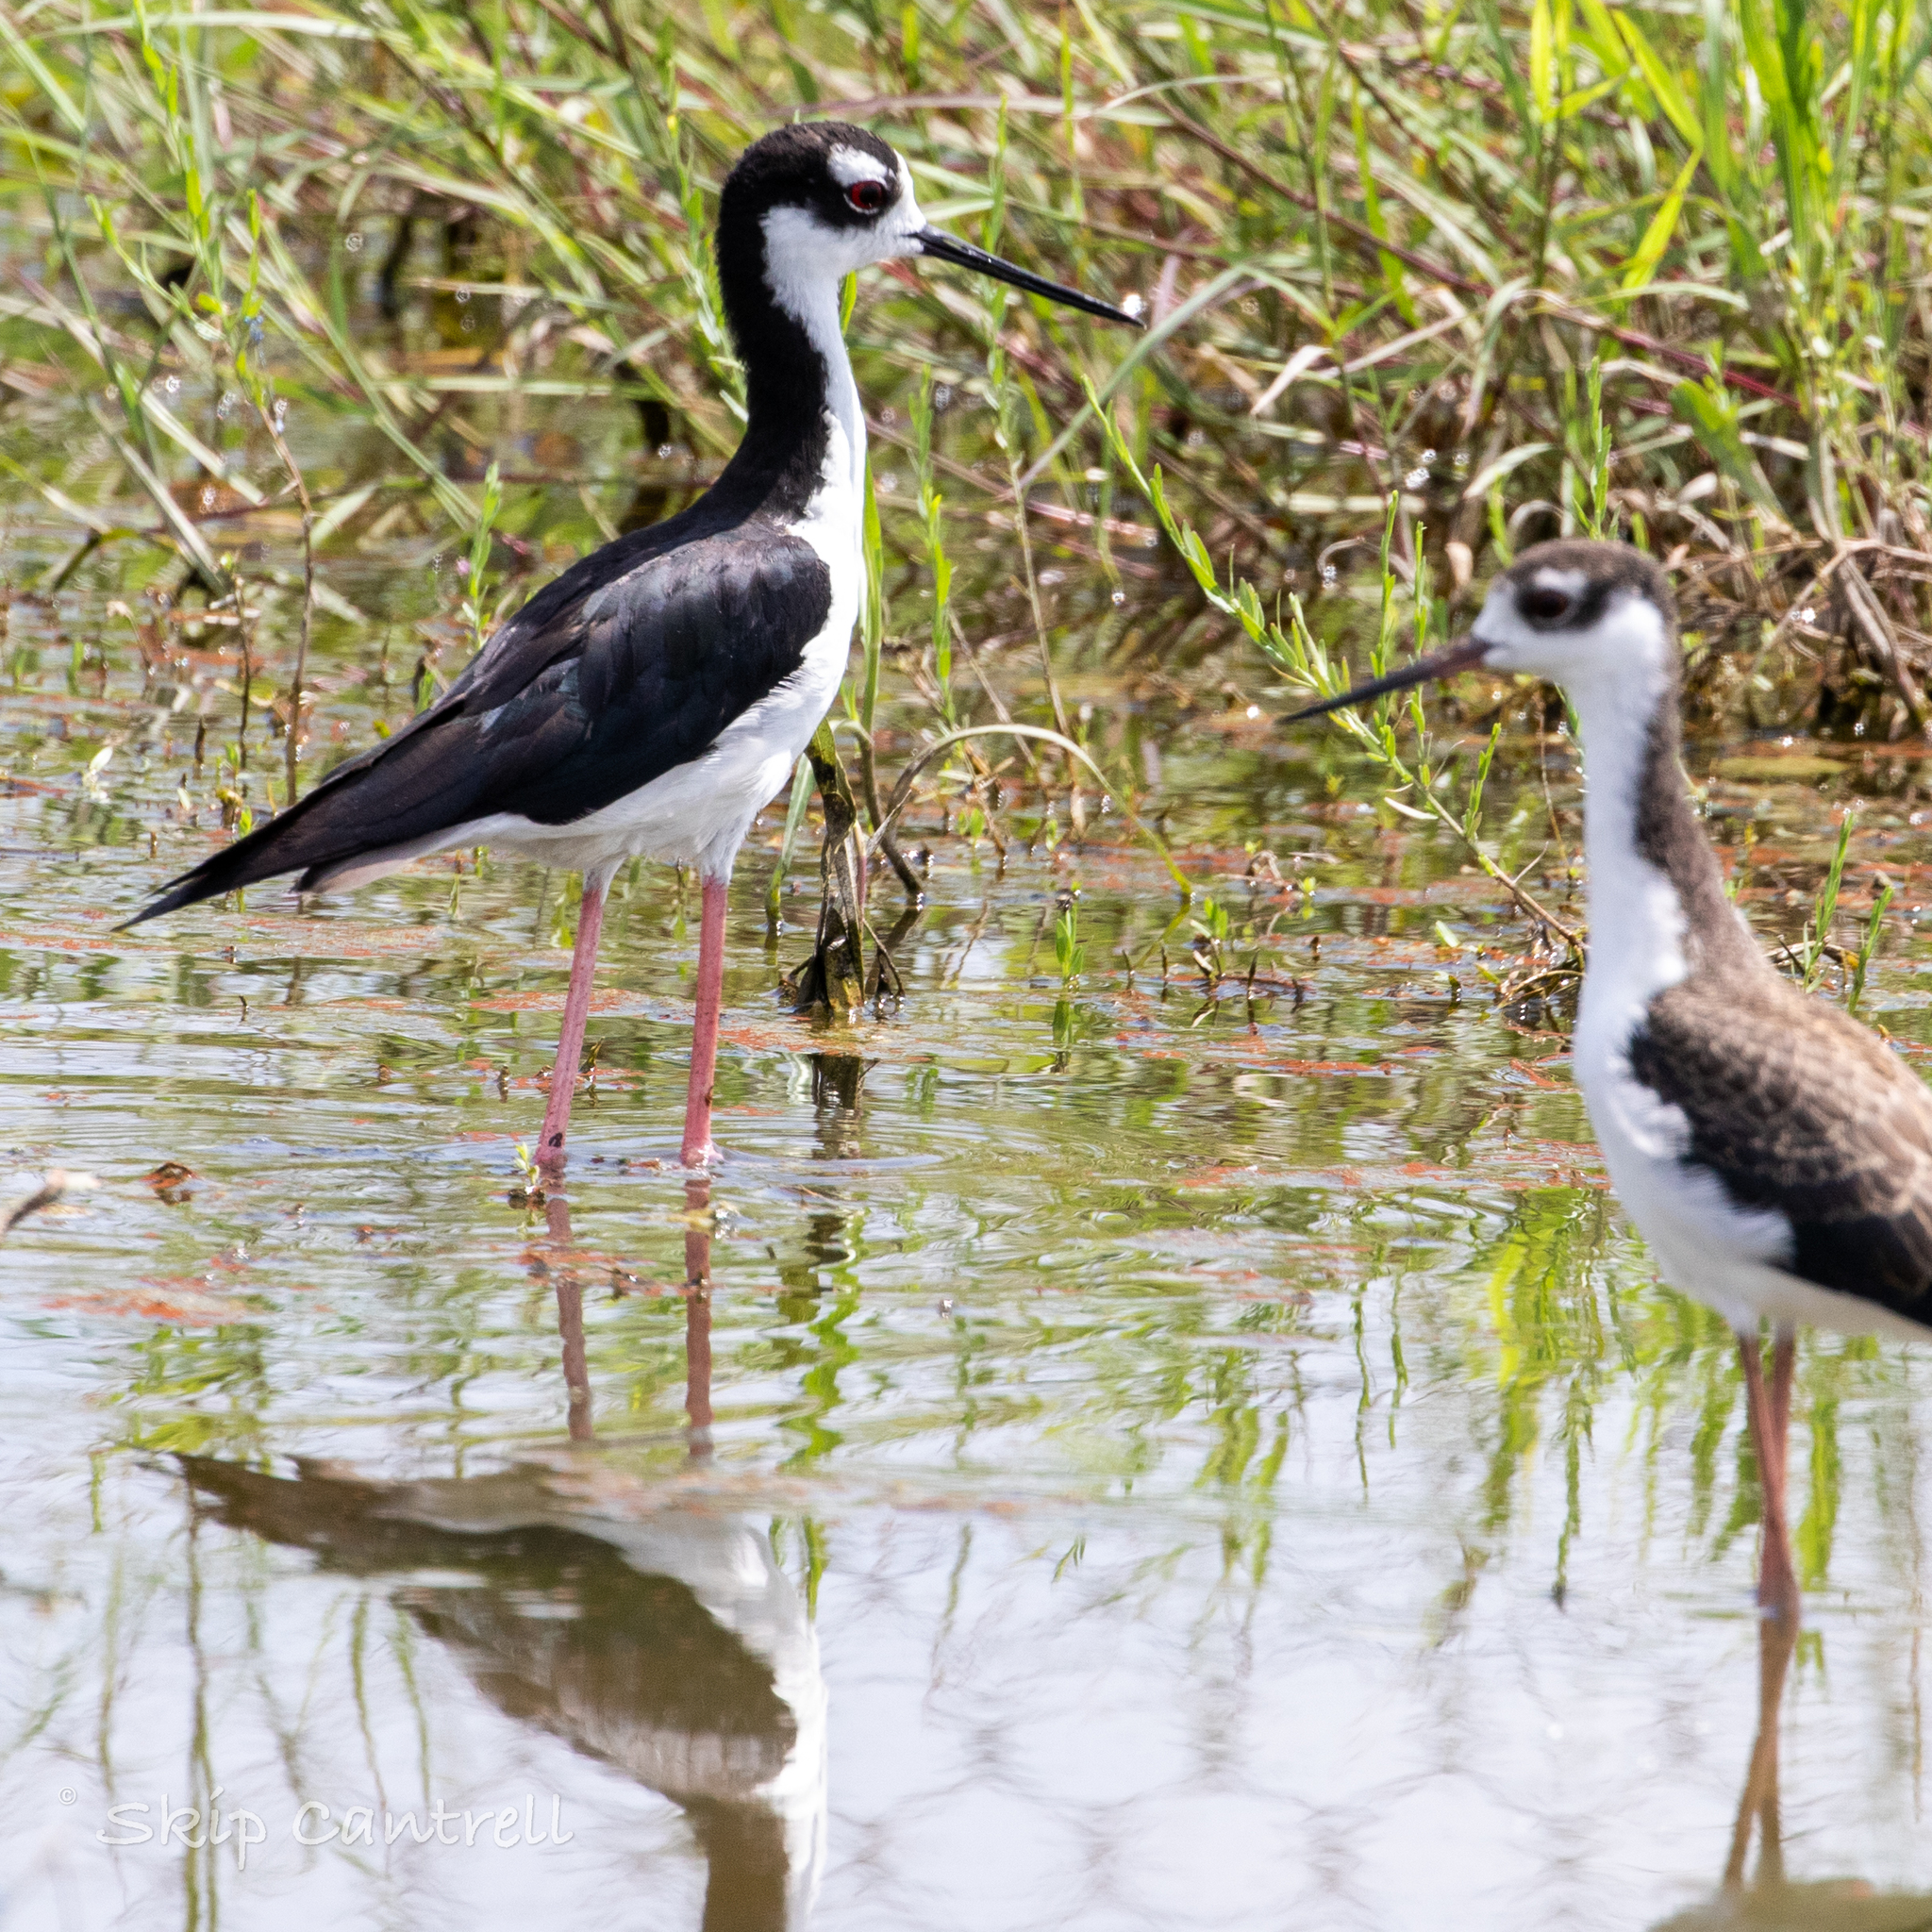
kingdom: Animalia
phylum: Chordata
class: Aves
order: Charadriiformes
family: Recurvirostridae
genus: Himantopus
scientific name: Himantopus mexicanus
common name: Black-necked stilt
